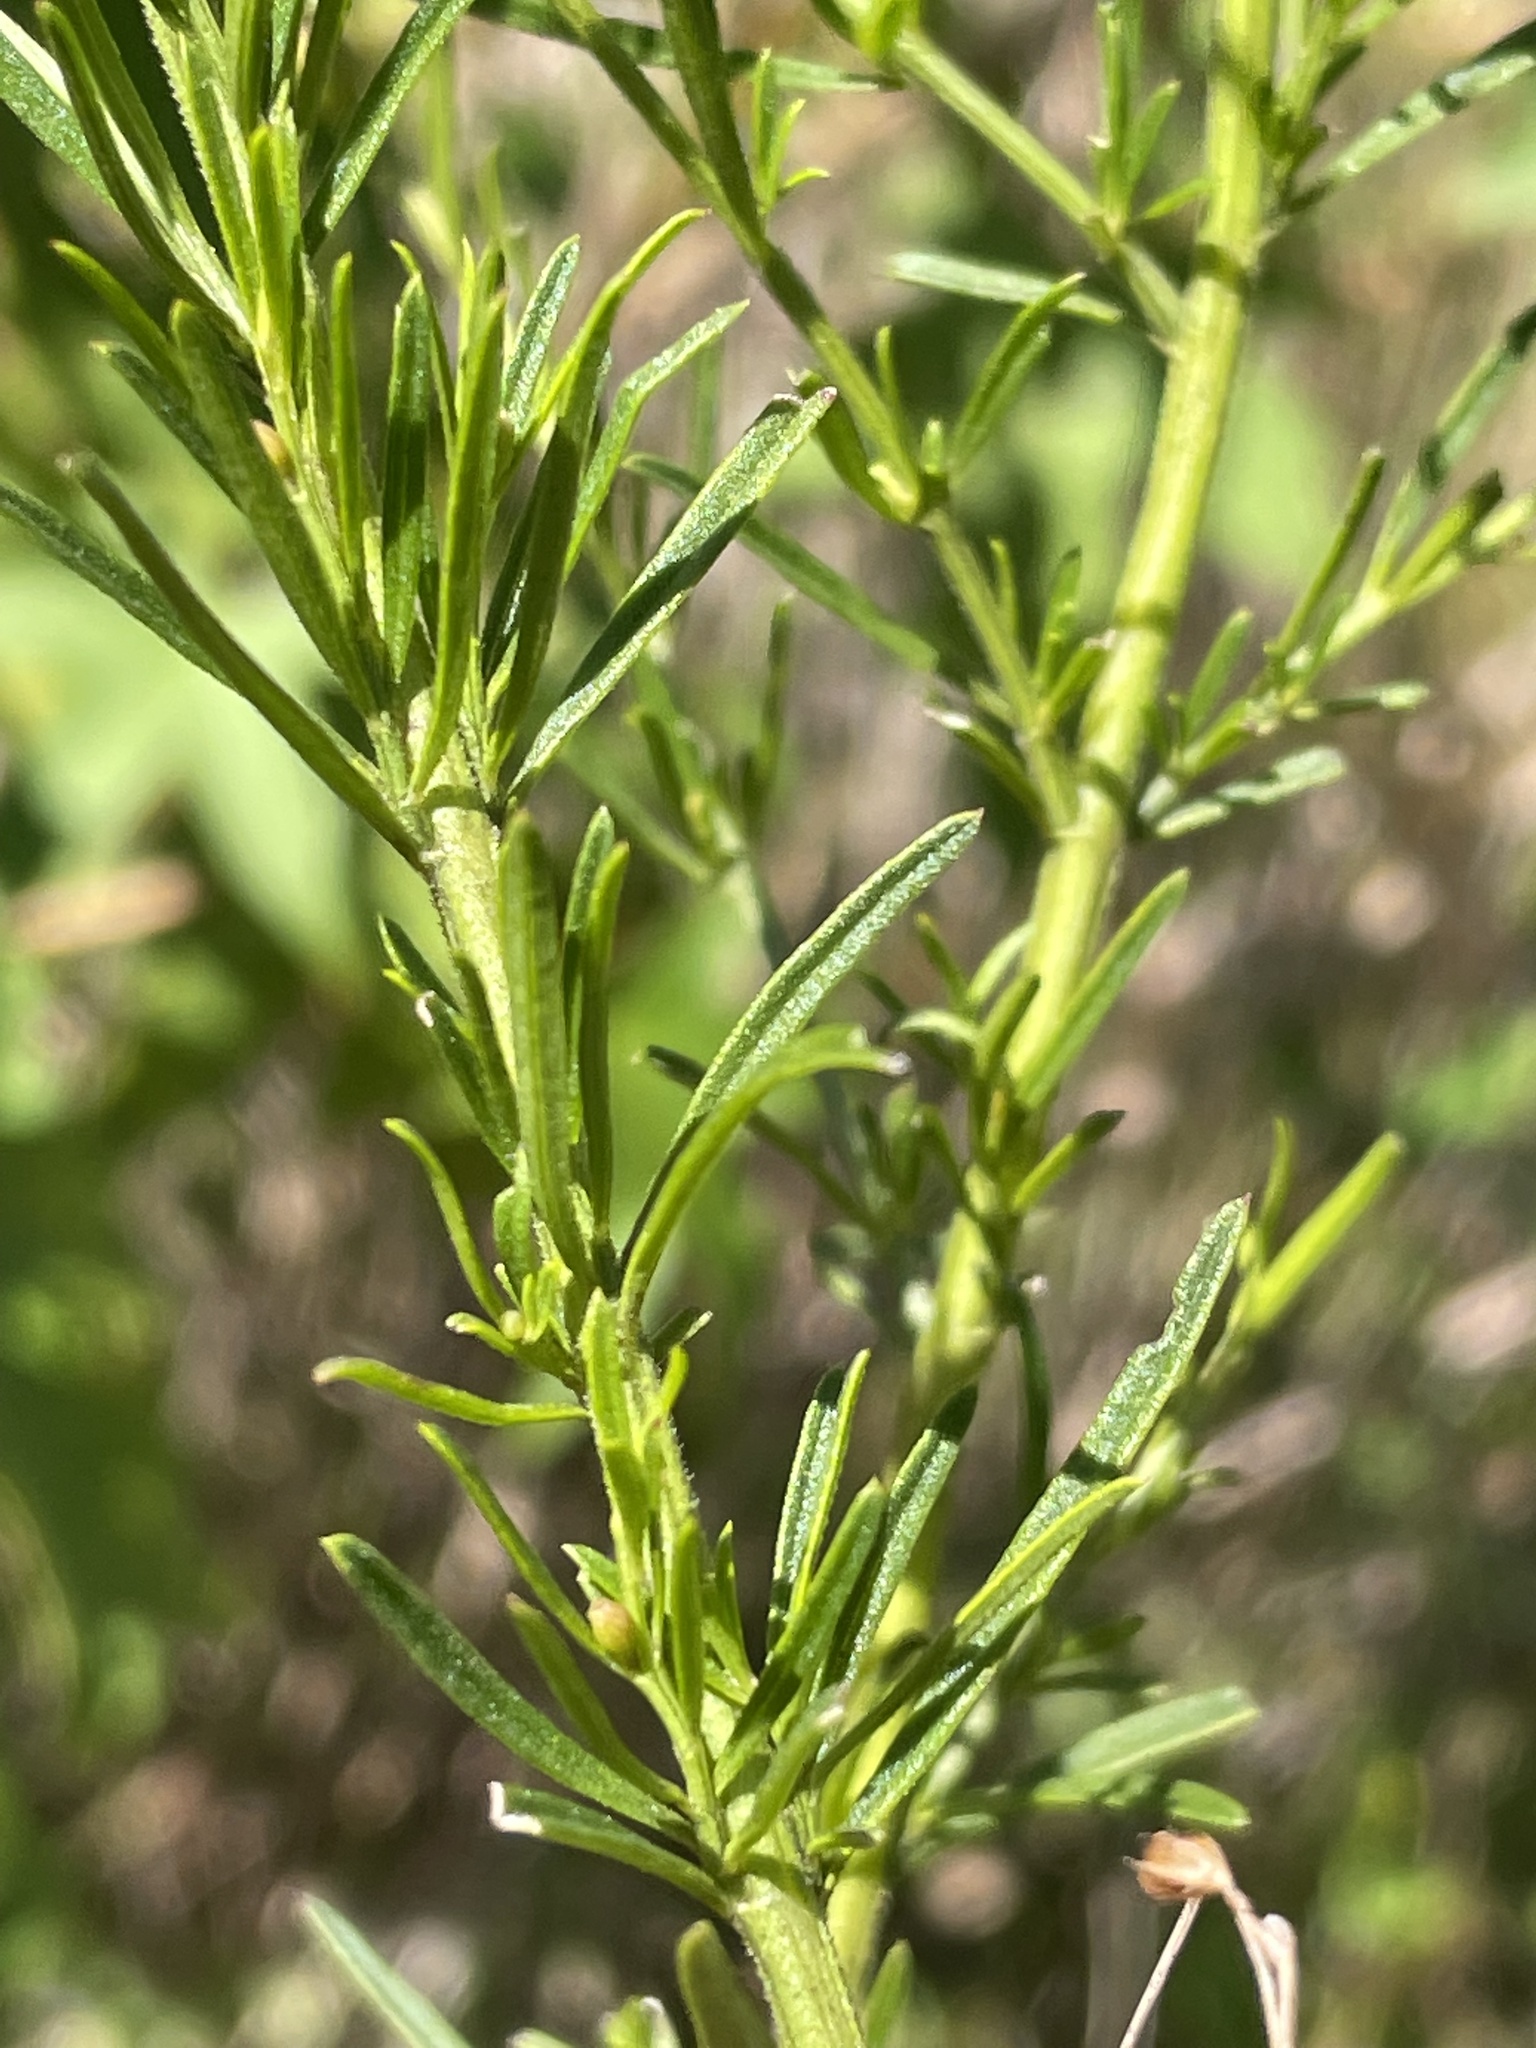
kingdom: Plantae
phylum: Tracheophyta
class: Magnoliopsida
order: Lamiales
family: Orobanchaceae
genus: Agalinis
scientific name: Agalinis fasciculata
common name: Beach false foxglove
